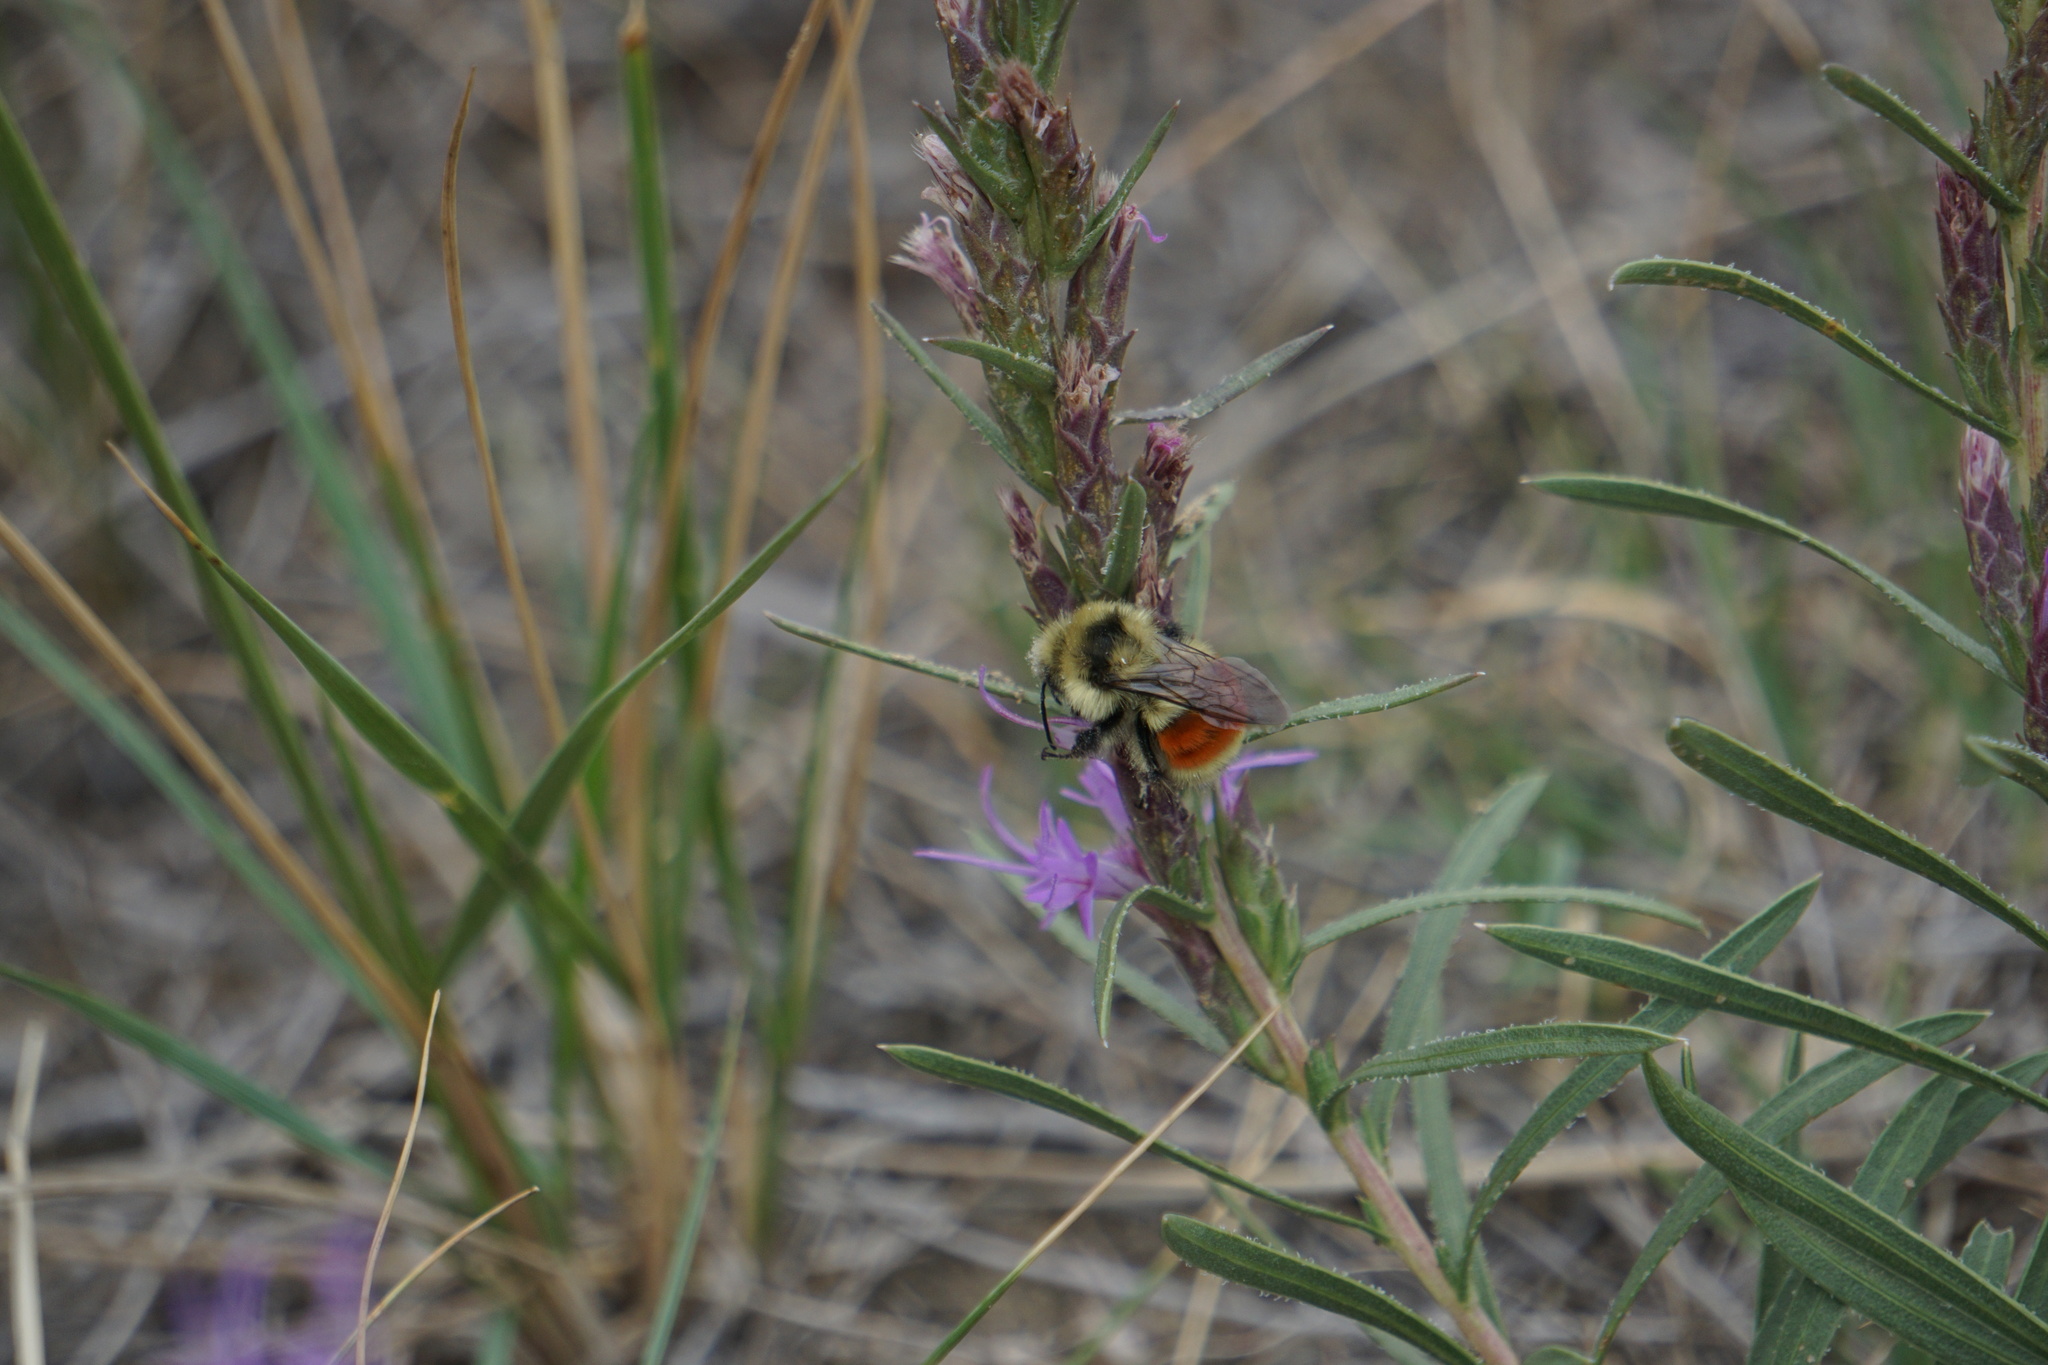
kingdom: Animalia
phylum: Arthropoda
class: Insecta
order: Hymenoptera
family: Apidae
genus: Bombus
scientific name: Bombus huntii
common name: Hunt bumble bee
